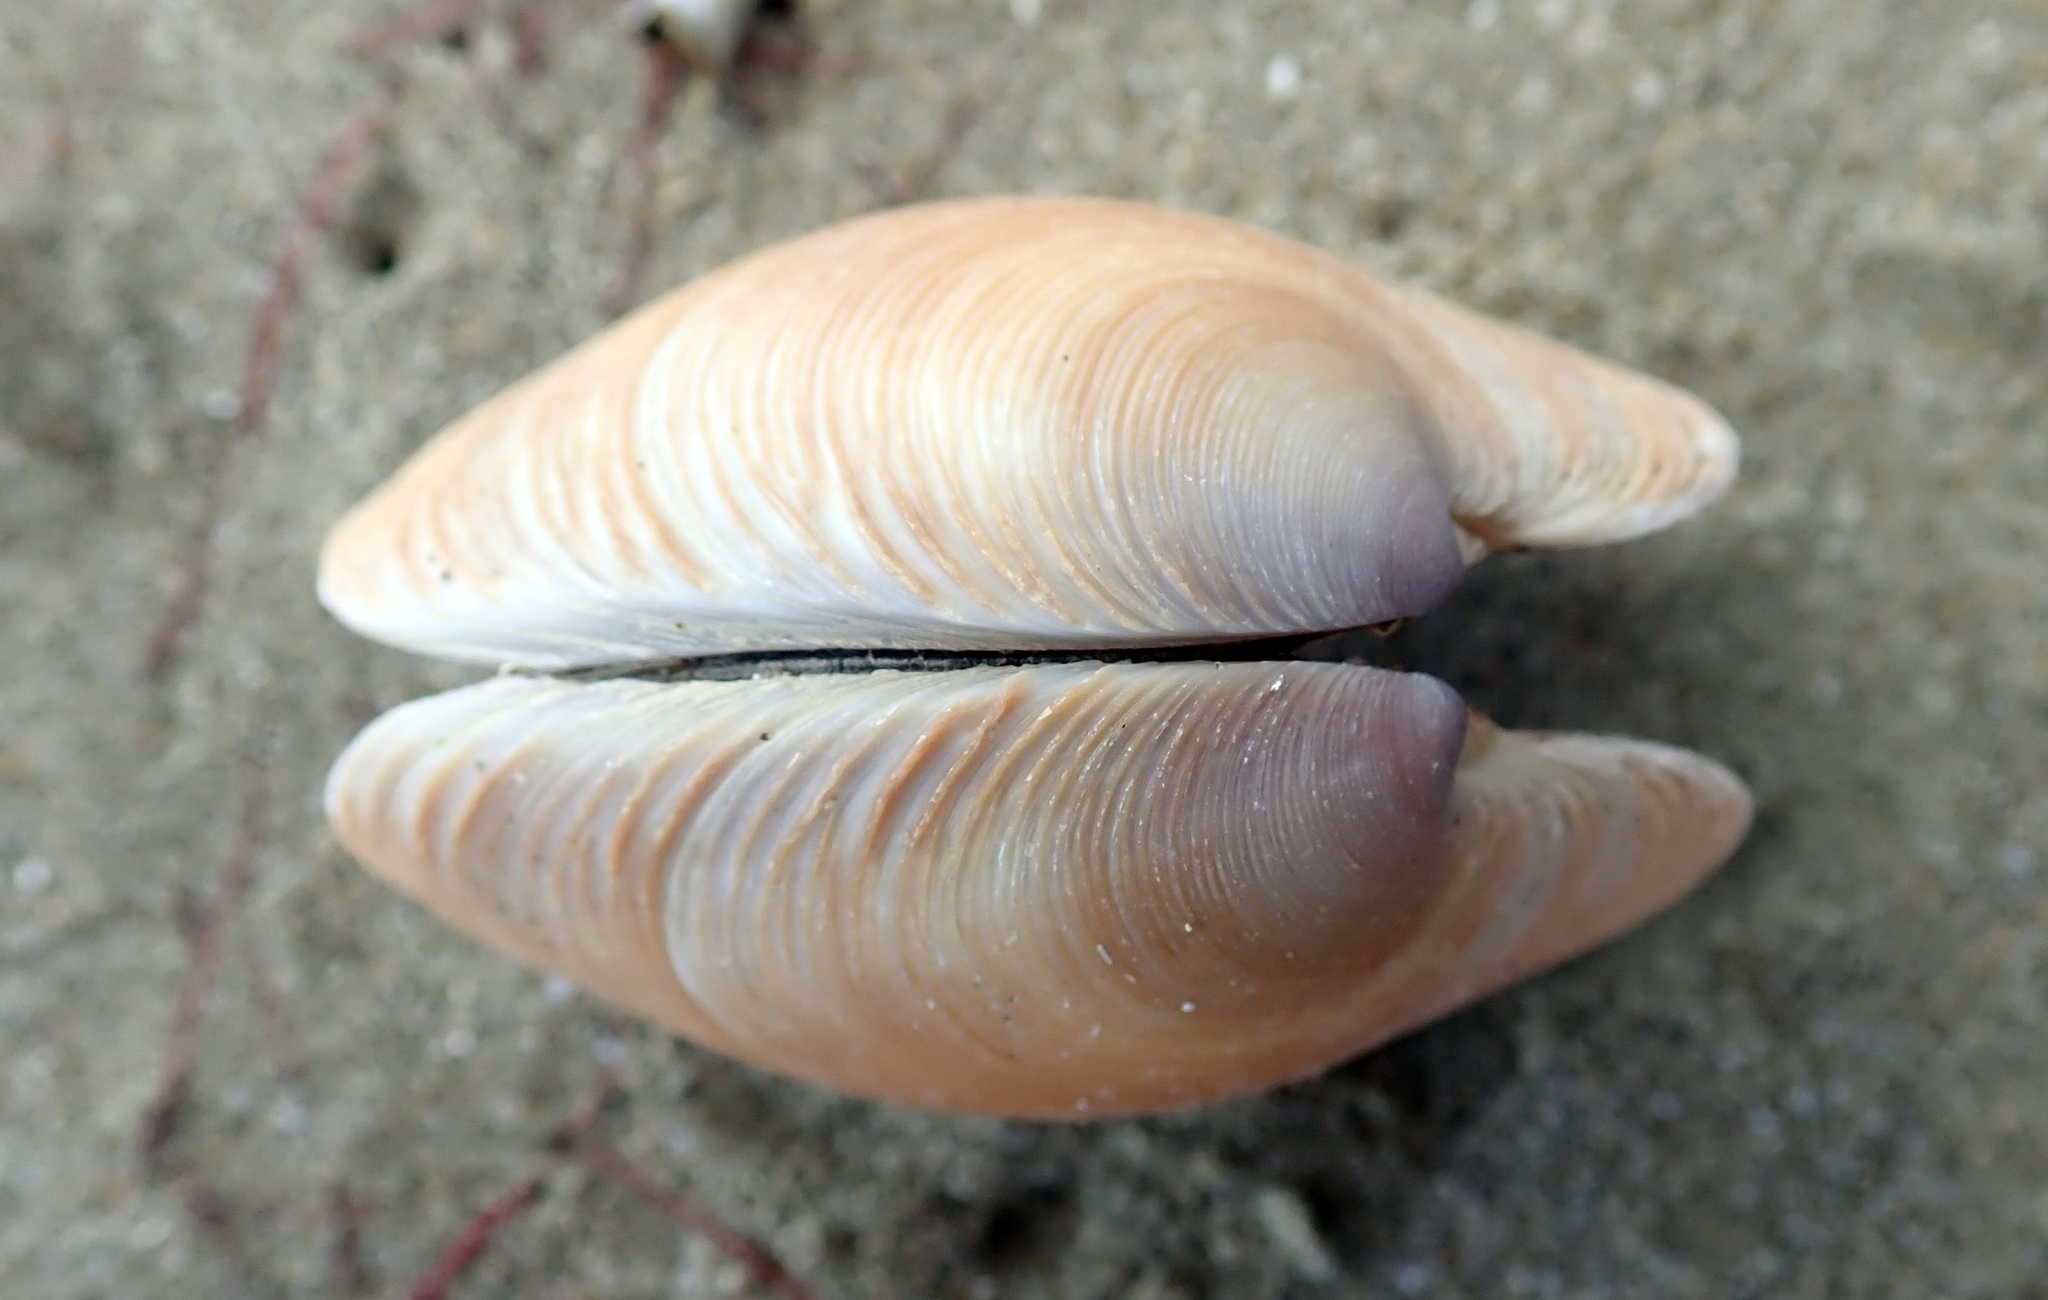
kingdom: Animalia
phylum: Mollusca
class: Bivalvia
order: Venerida
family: Veneridae
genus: Dosinia
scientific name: Dosinia anus
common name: Old-woman dosinia
